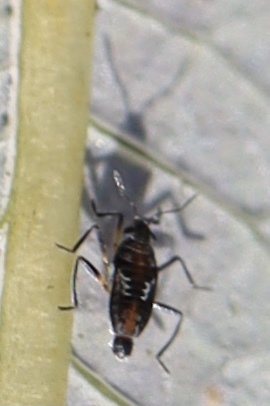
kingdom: Animalia
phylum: Arthropoda
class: Insecta
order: Hemiptera
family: Veliidae
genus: Microvelia
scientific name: Microvelia pulchella
